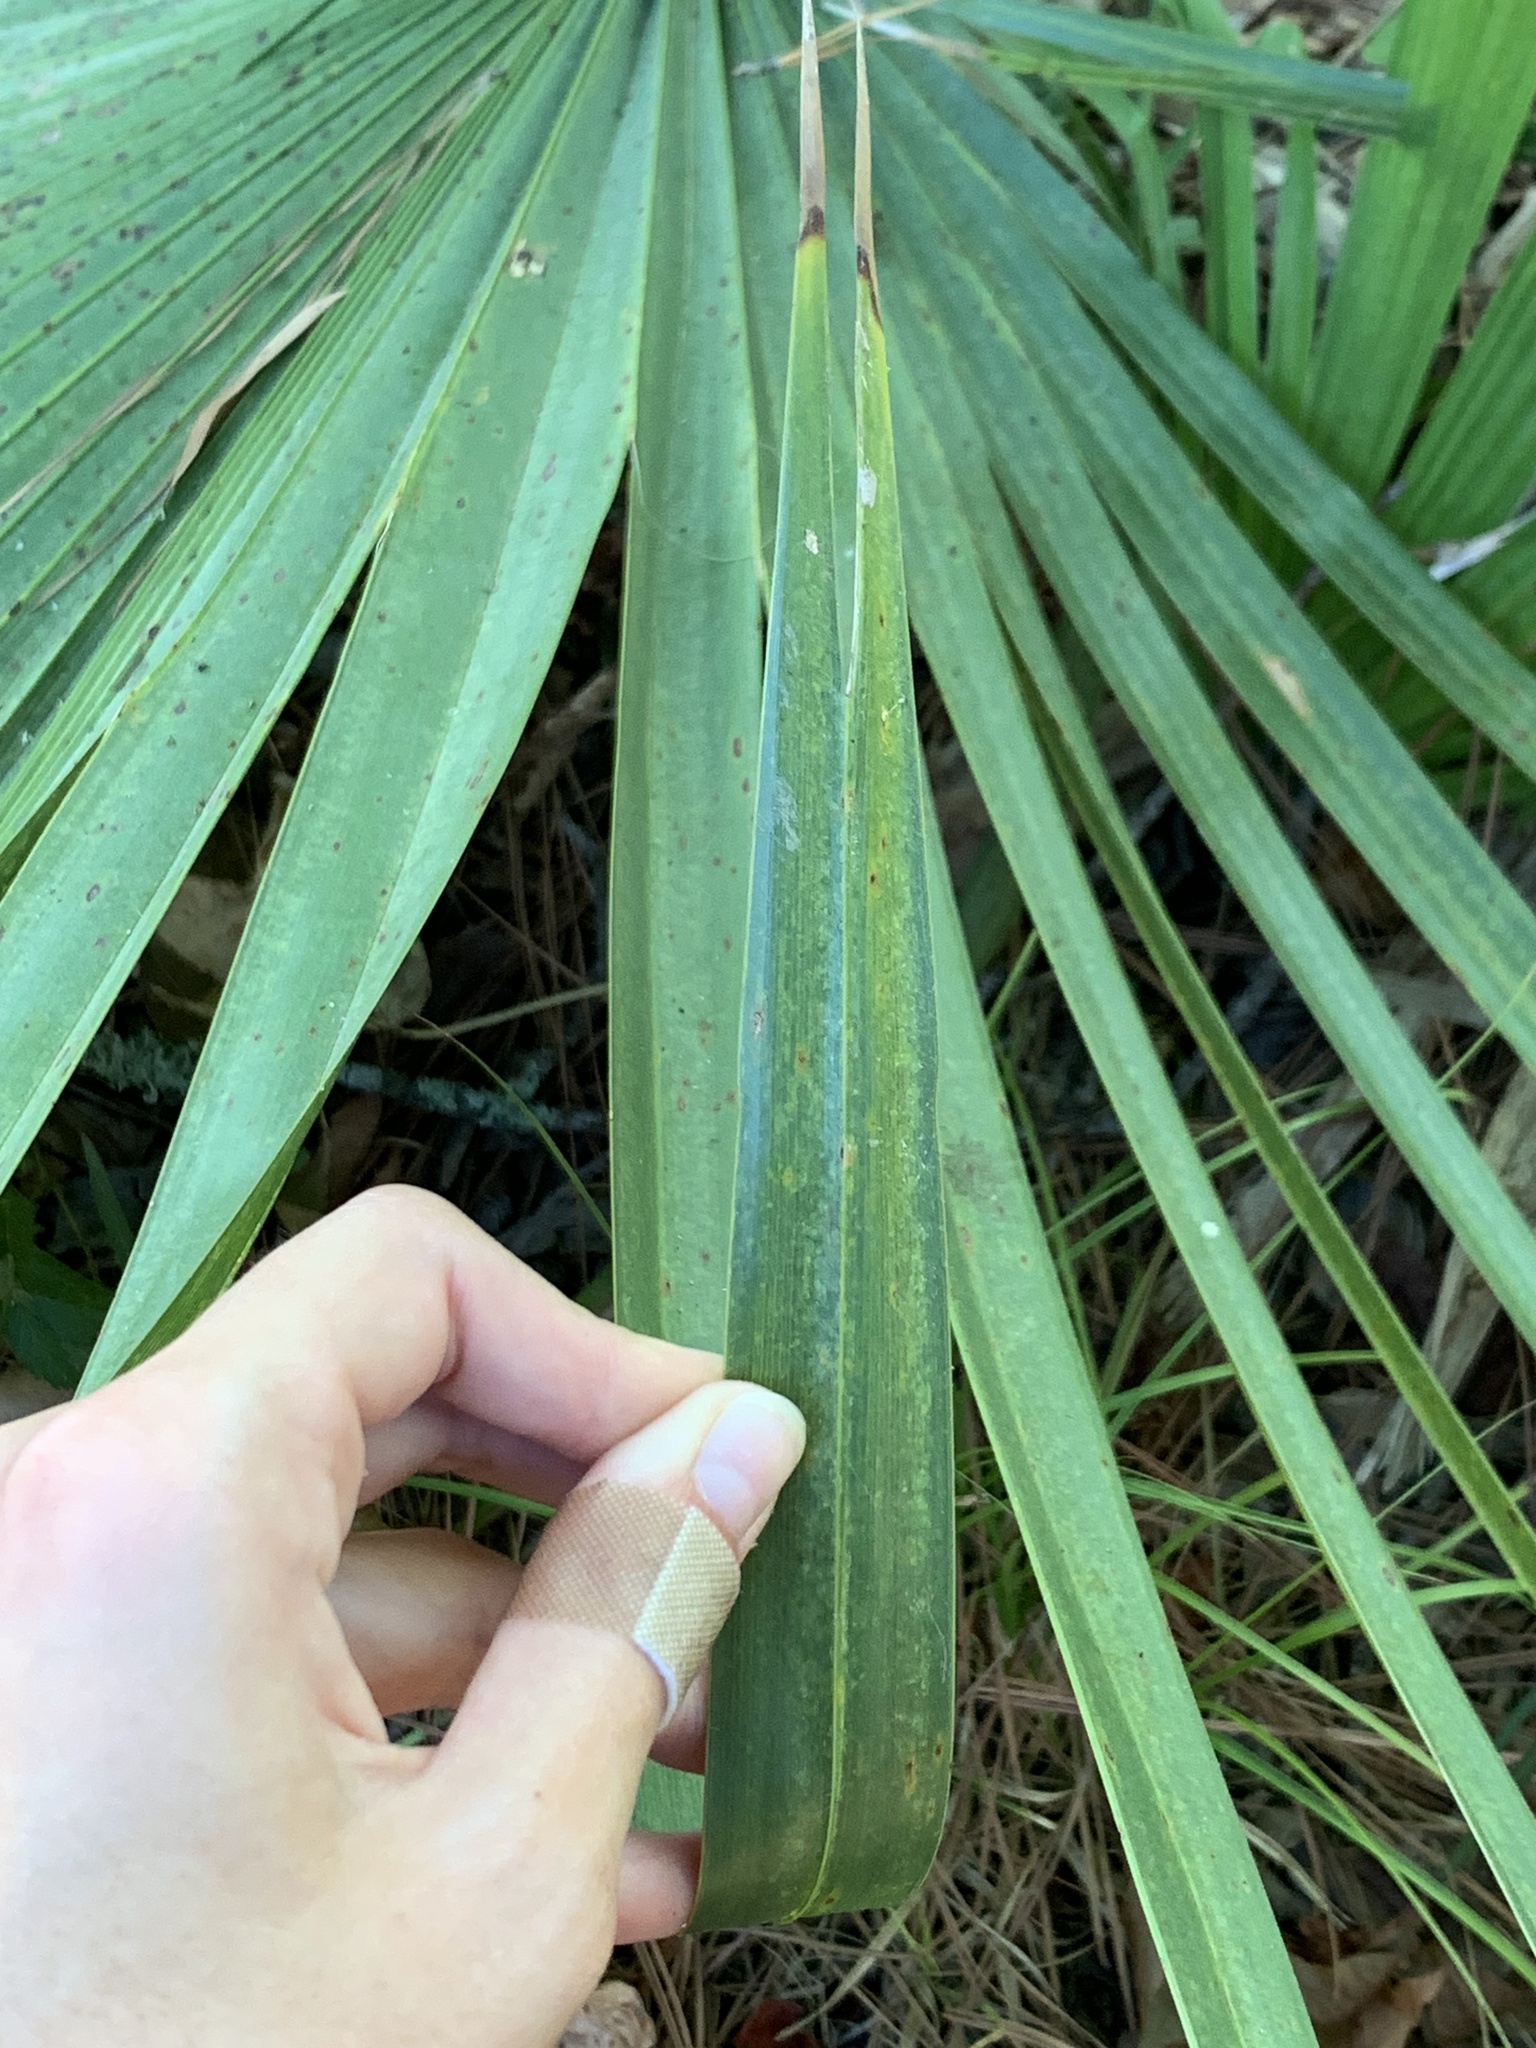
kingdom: Plantae
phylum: Tracheophyta
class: Liliopsida
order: Arecales
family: Arecaceae
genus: Sabal
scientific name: Sabal minor
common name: Dwarf palmetto
